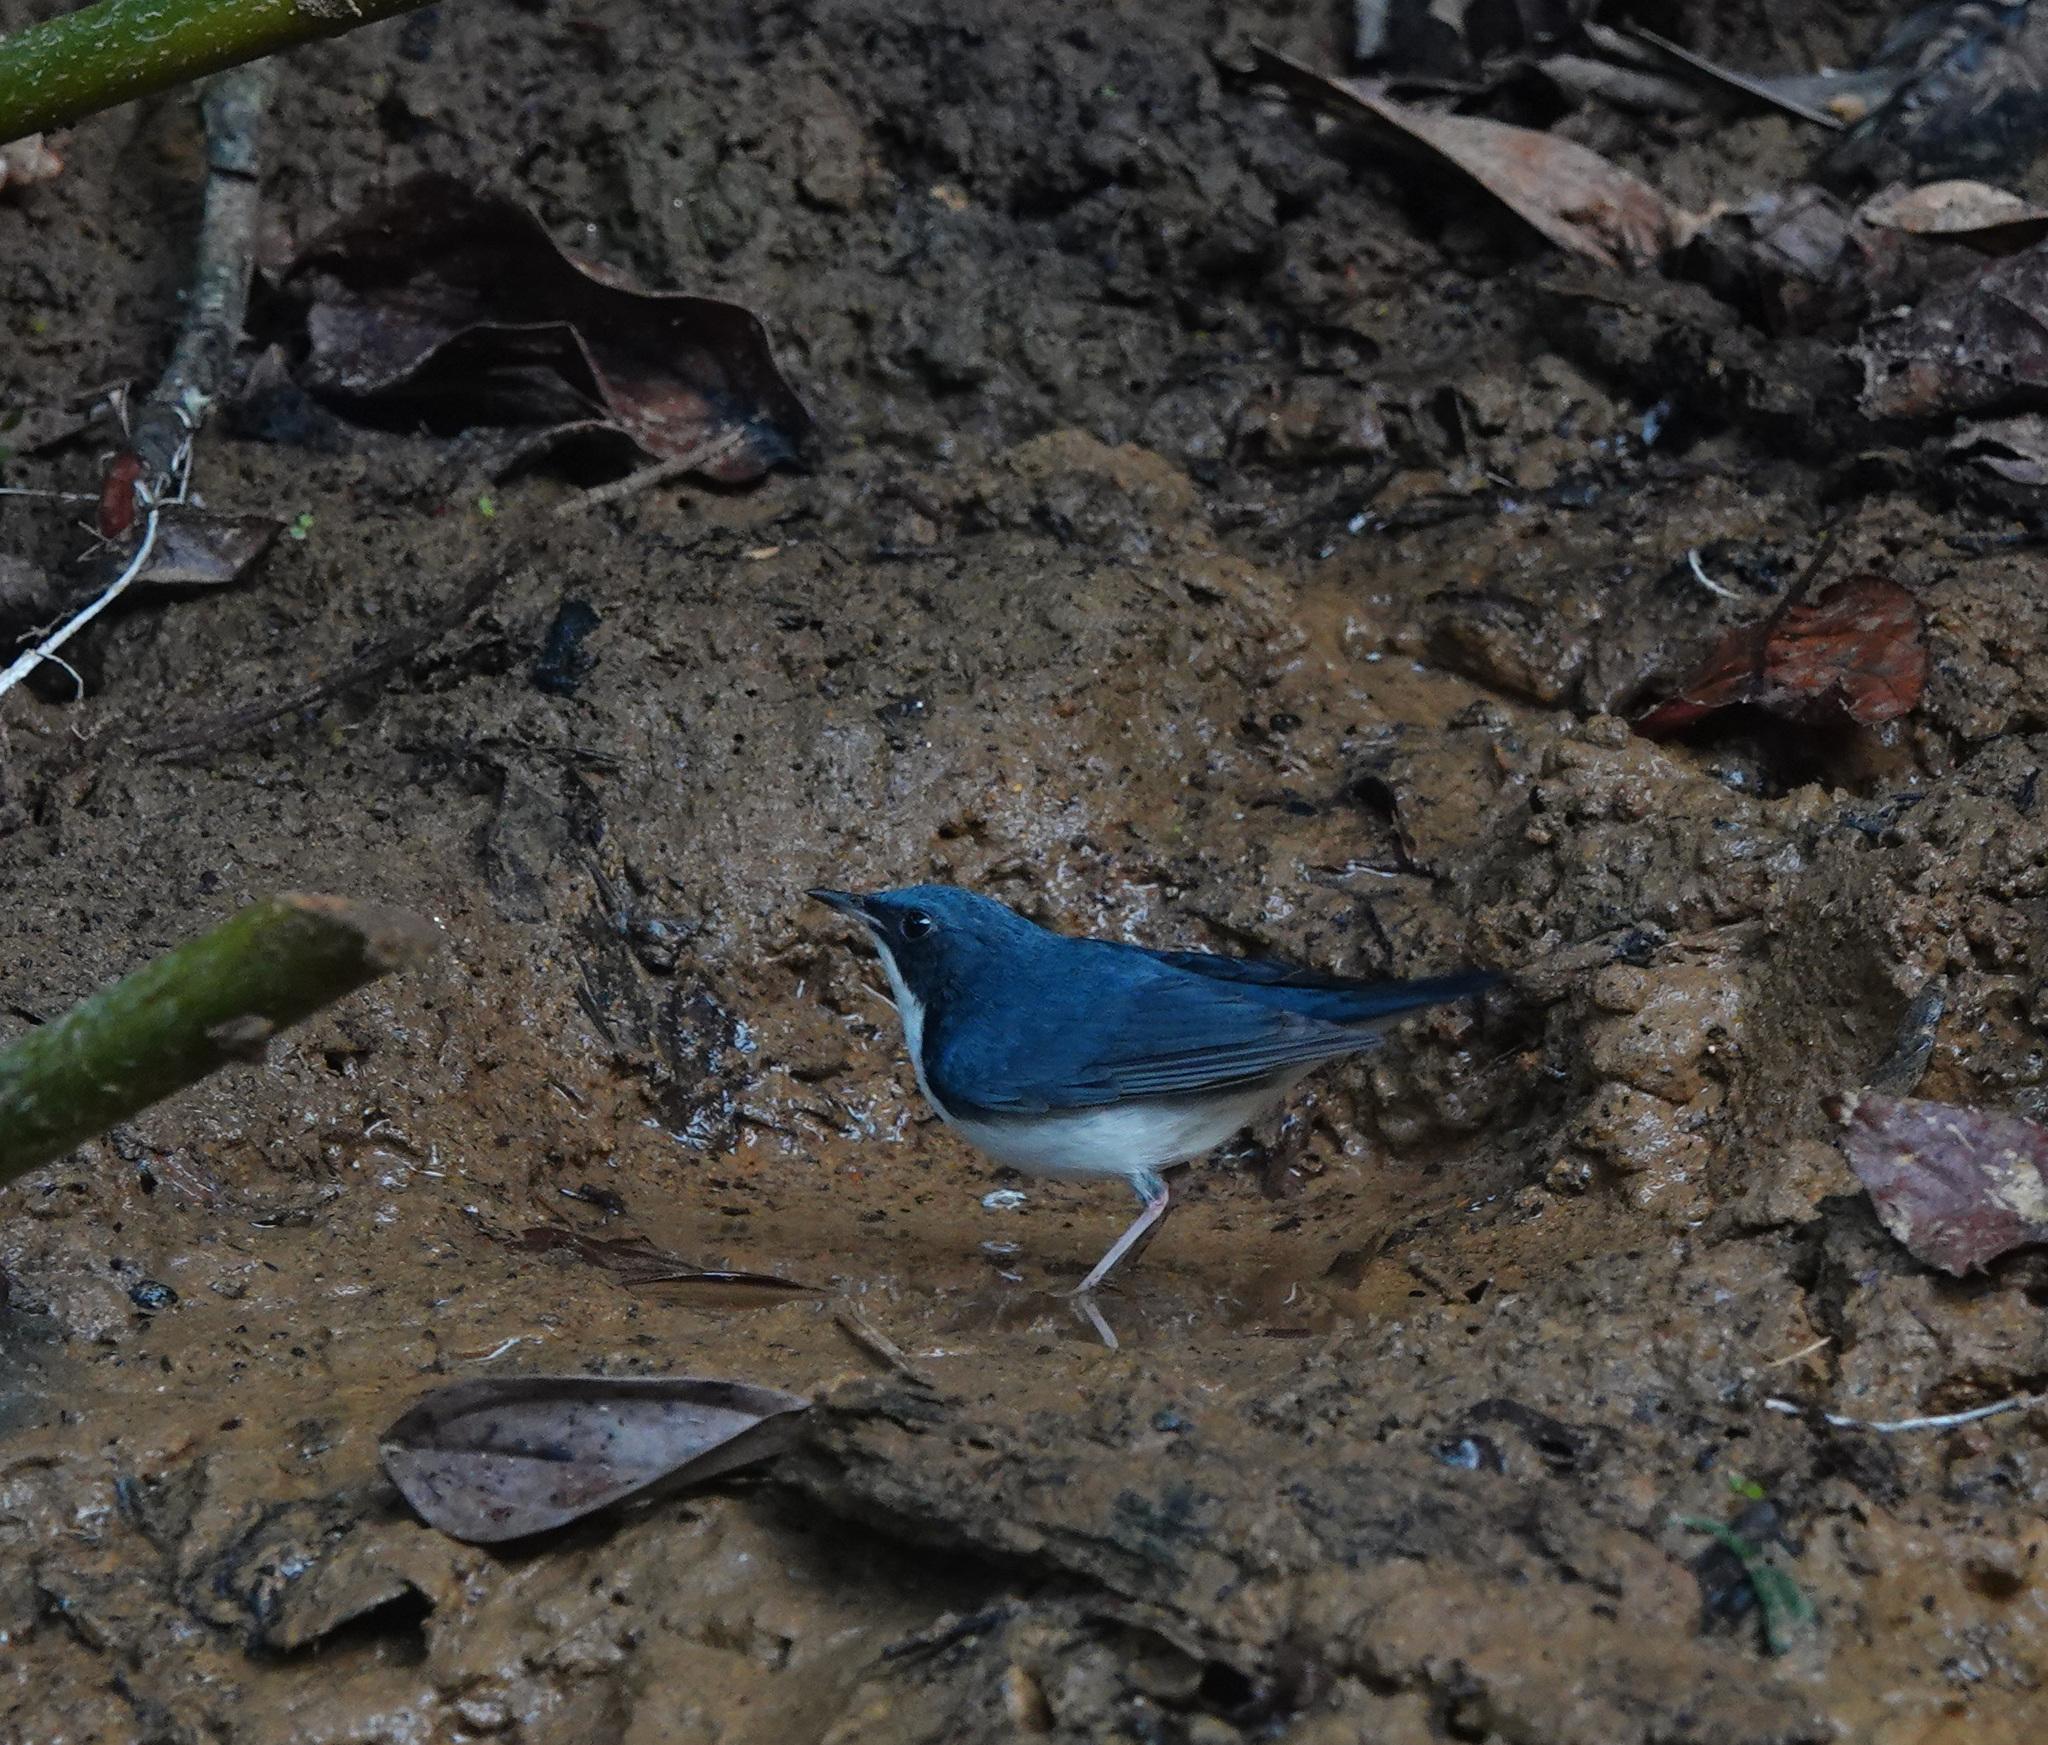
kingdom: Animalia
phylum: Chordata
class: Aves
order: Passeriformes
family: Muscicapidae
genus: Luscinia
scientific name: Luscinia cyane
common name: Siberian blue robin
